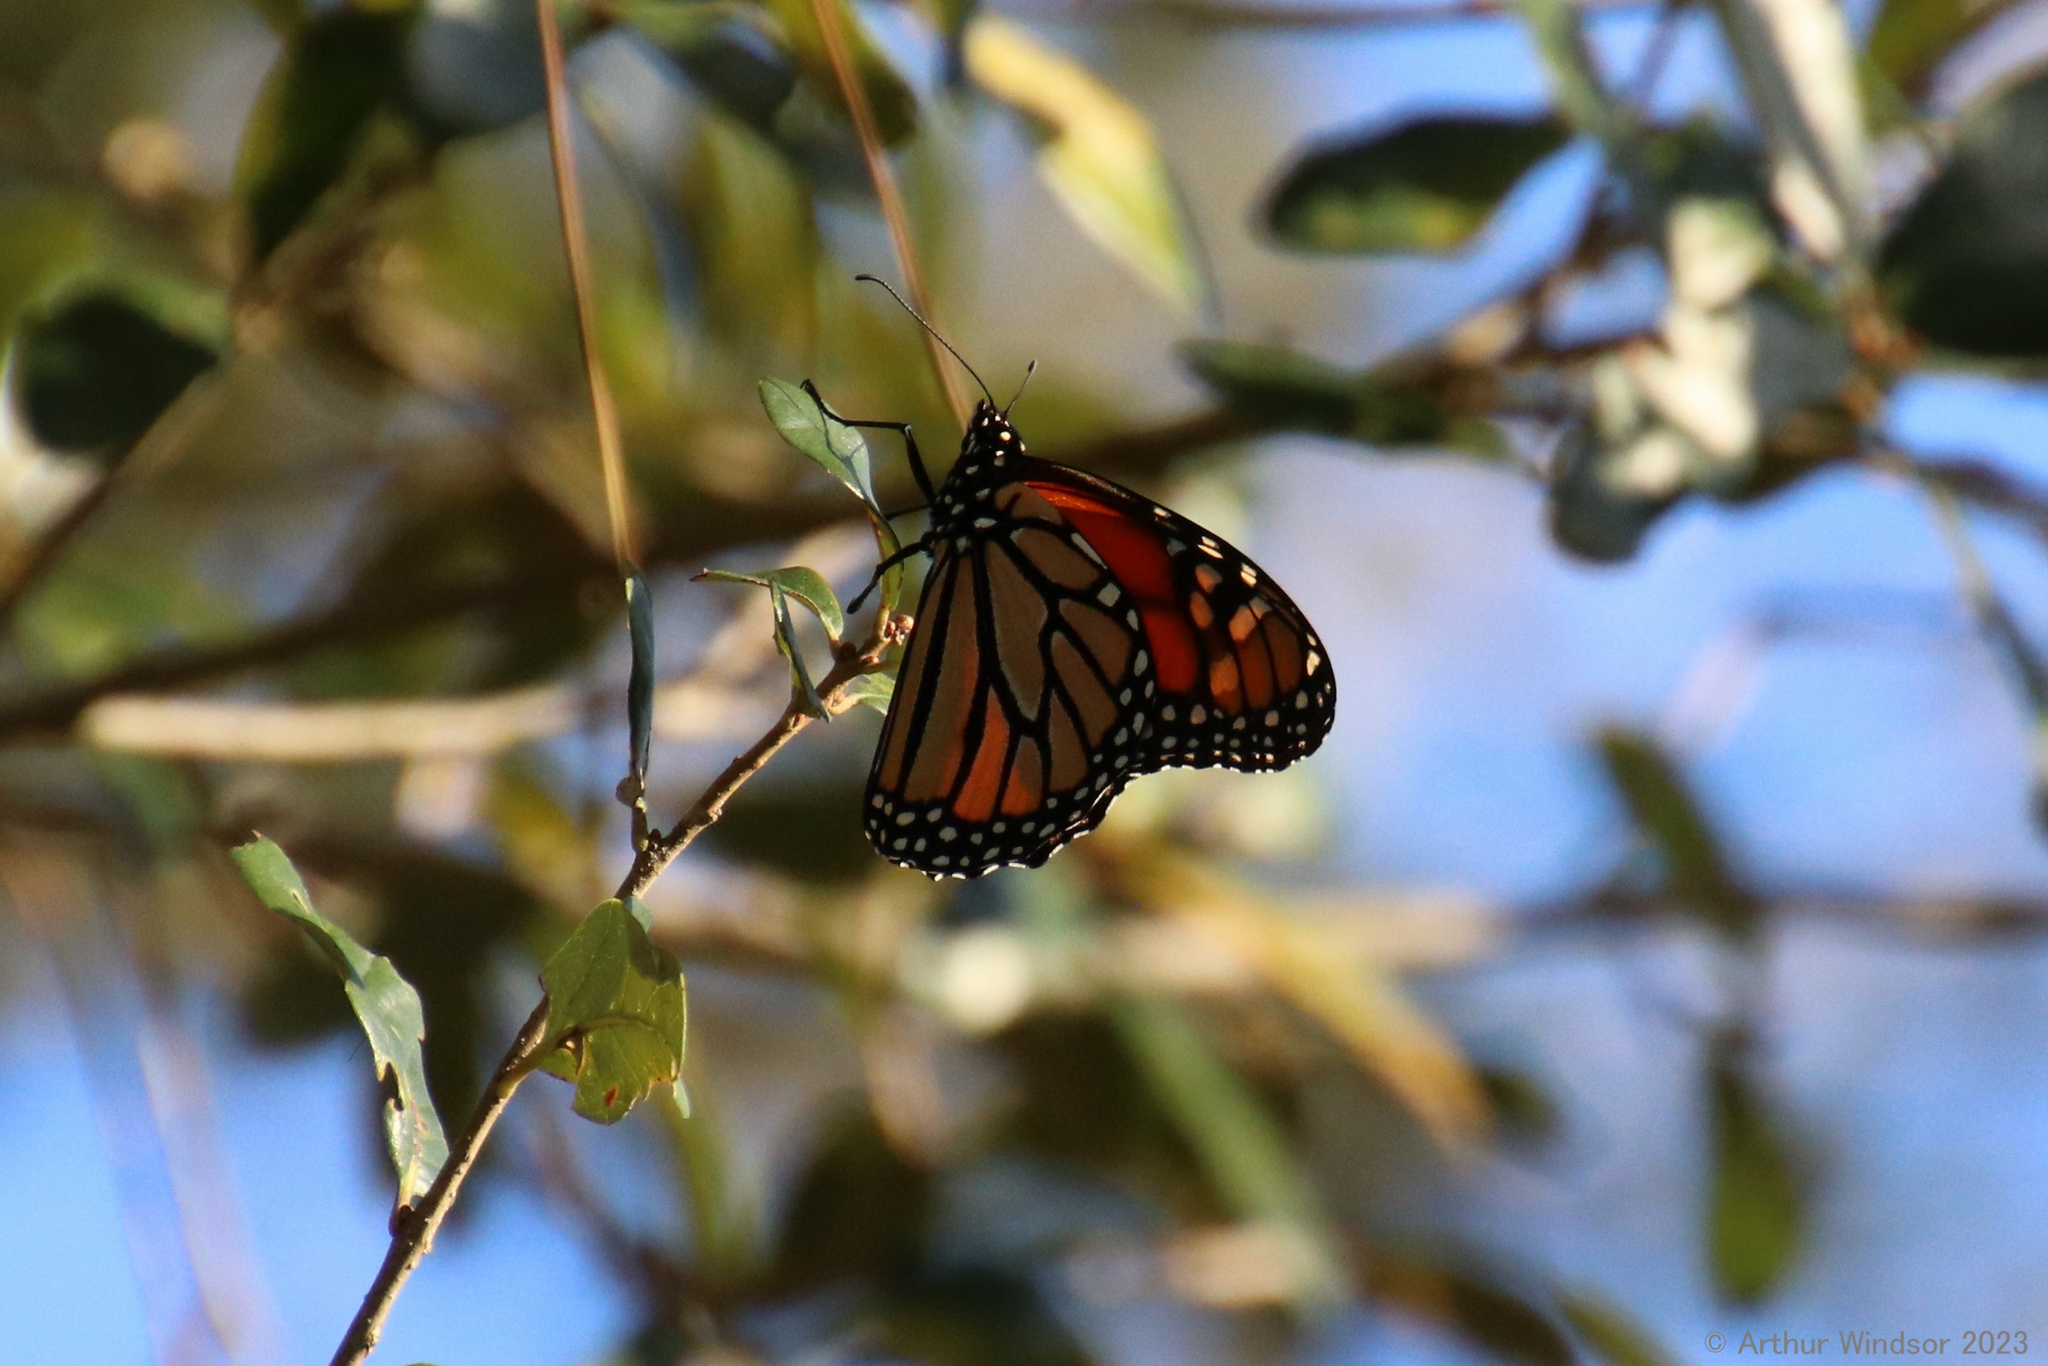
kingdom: Animalia
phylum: Arthropoda
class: Insecta
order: Lepidoptera
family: Nymphalidae
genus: Danaus
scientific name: Danaus plexippus
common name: Monarch
